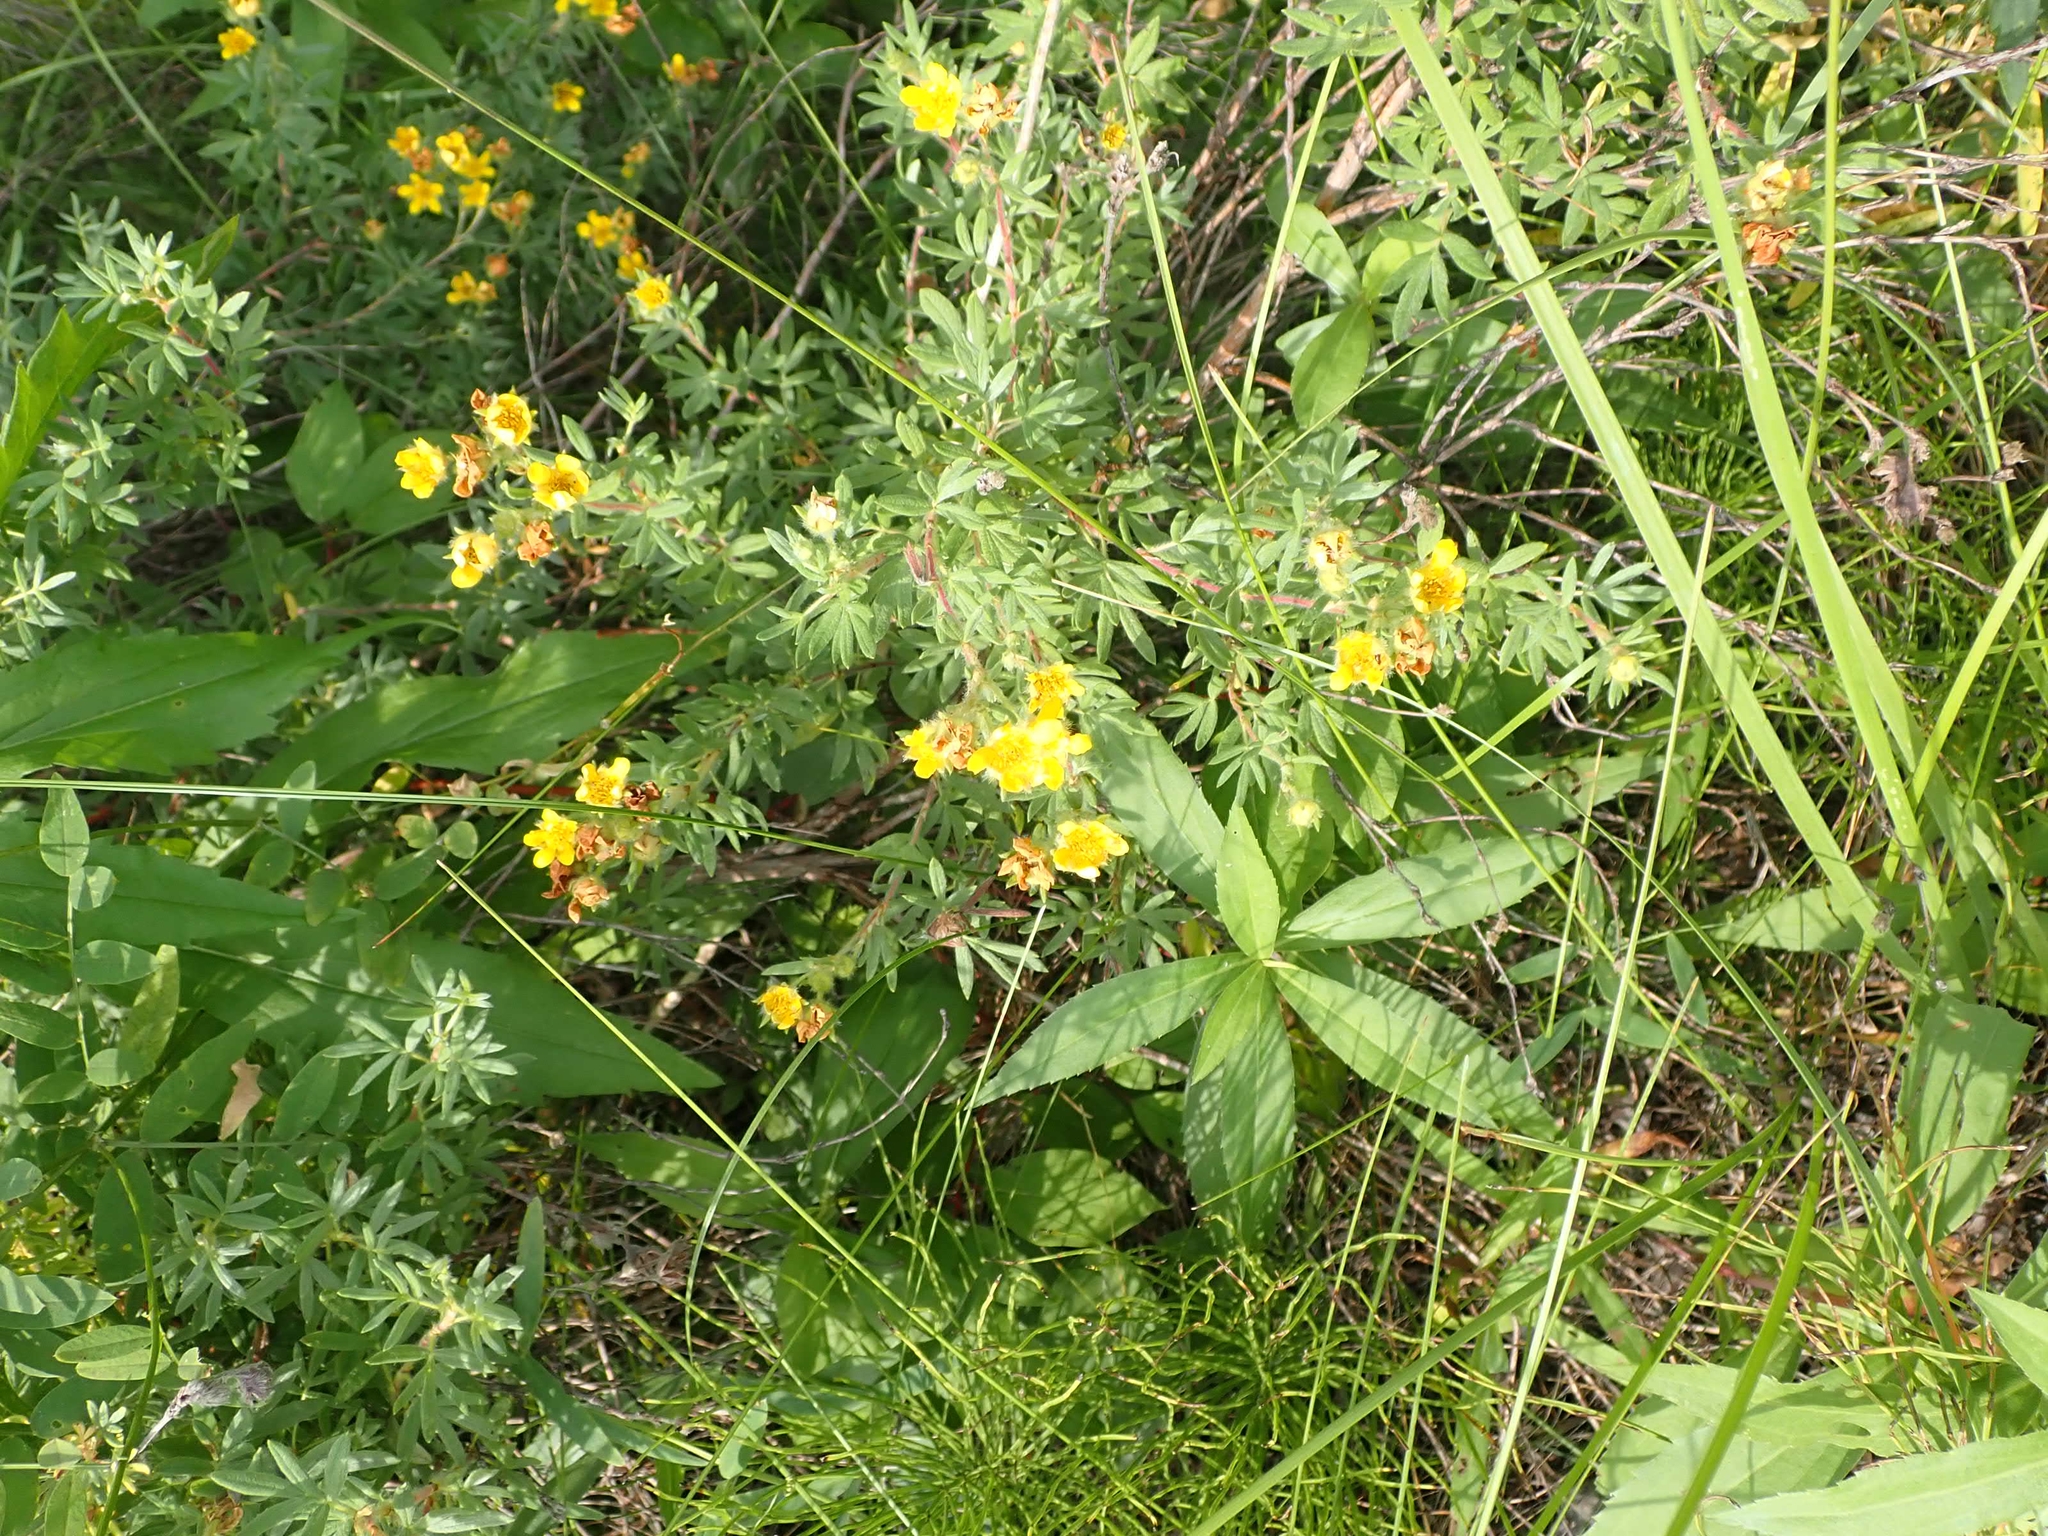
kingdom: Plantae
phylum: Tracheophyta
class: Magnoliopsida
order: Rosales
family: Rosaceae
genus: Dasiphora
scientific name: Dasiphora fruticosa
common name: Shrubby cinquefoil
